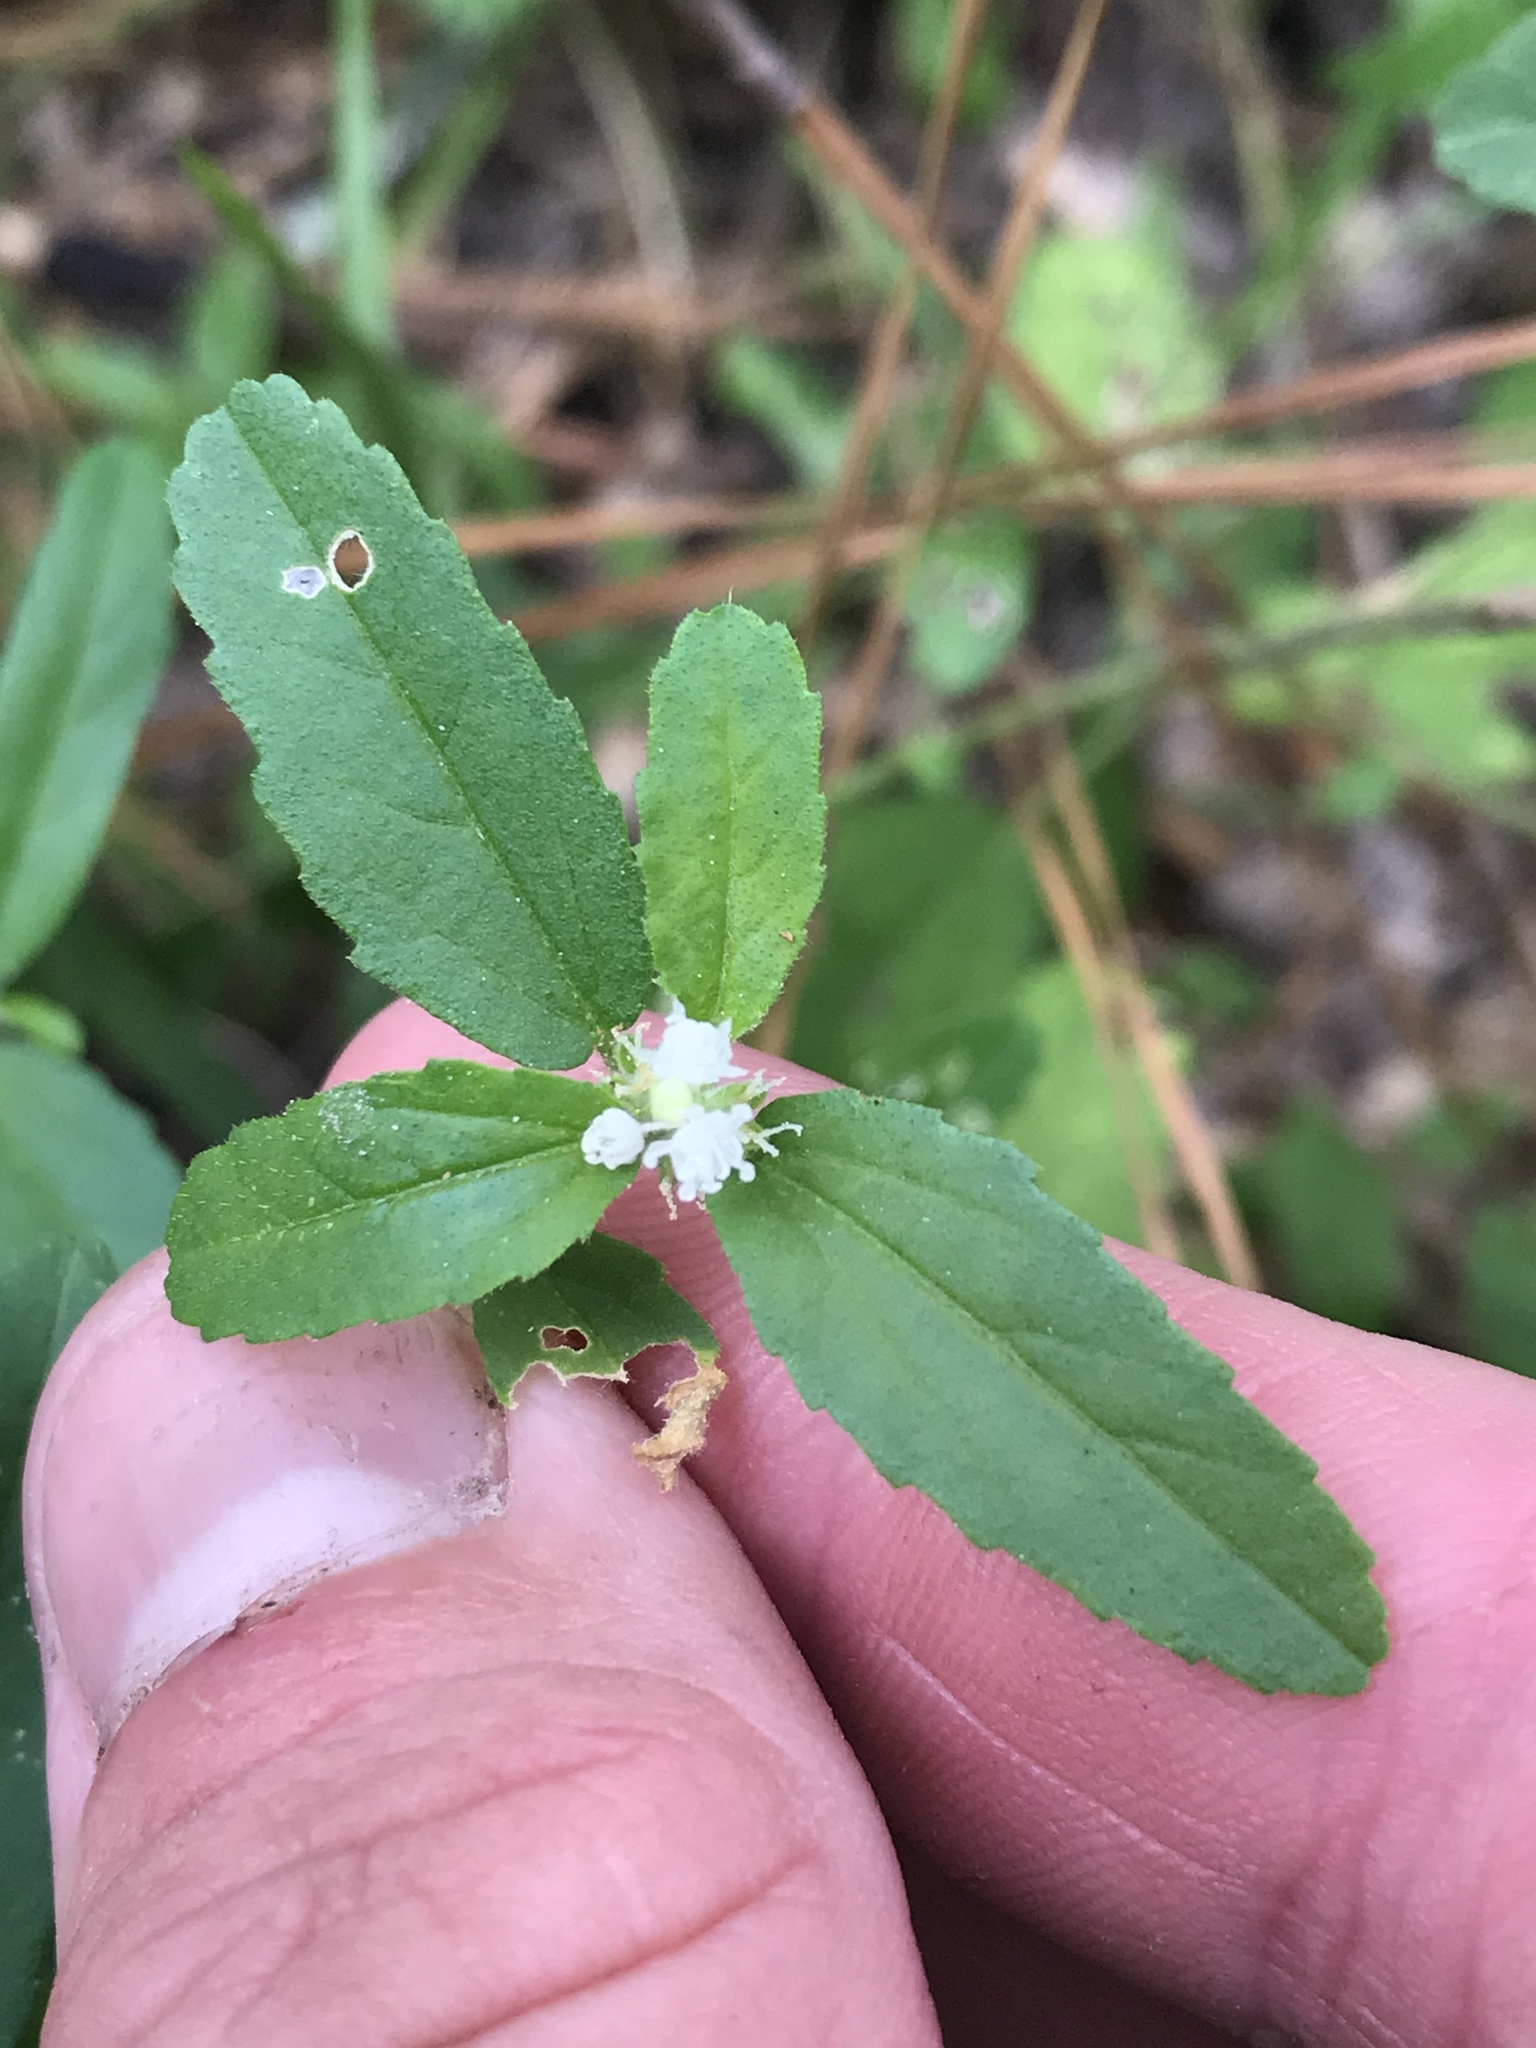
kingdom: Plantae
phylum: Tracheophyta
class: Magnoliopsida
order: Malpighiales
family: Euphorbiaceae
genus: Croton
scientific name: Croton glandulosus
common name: Tropic croton
